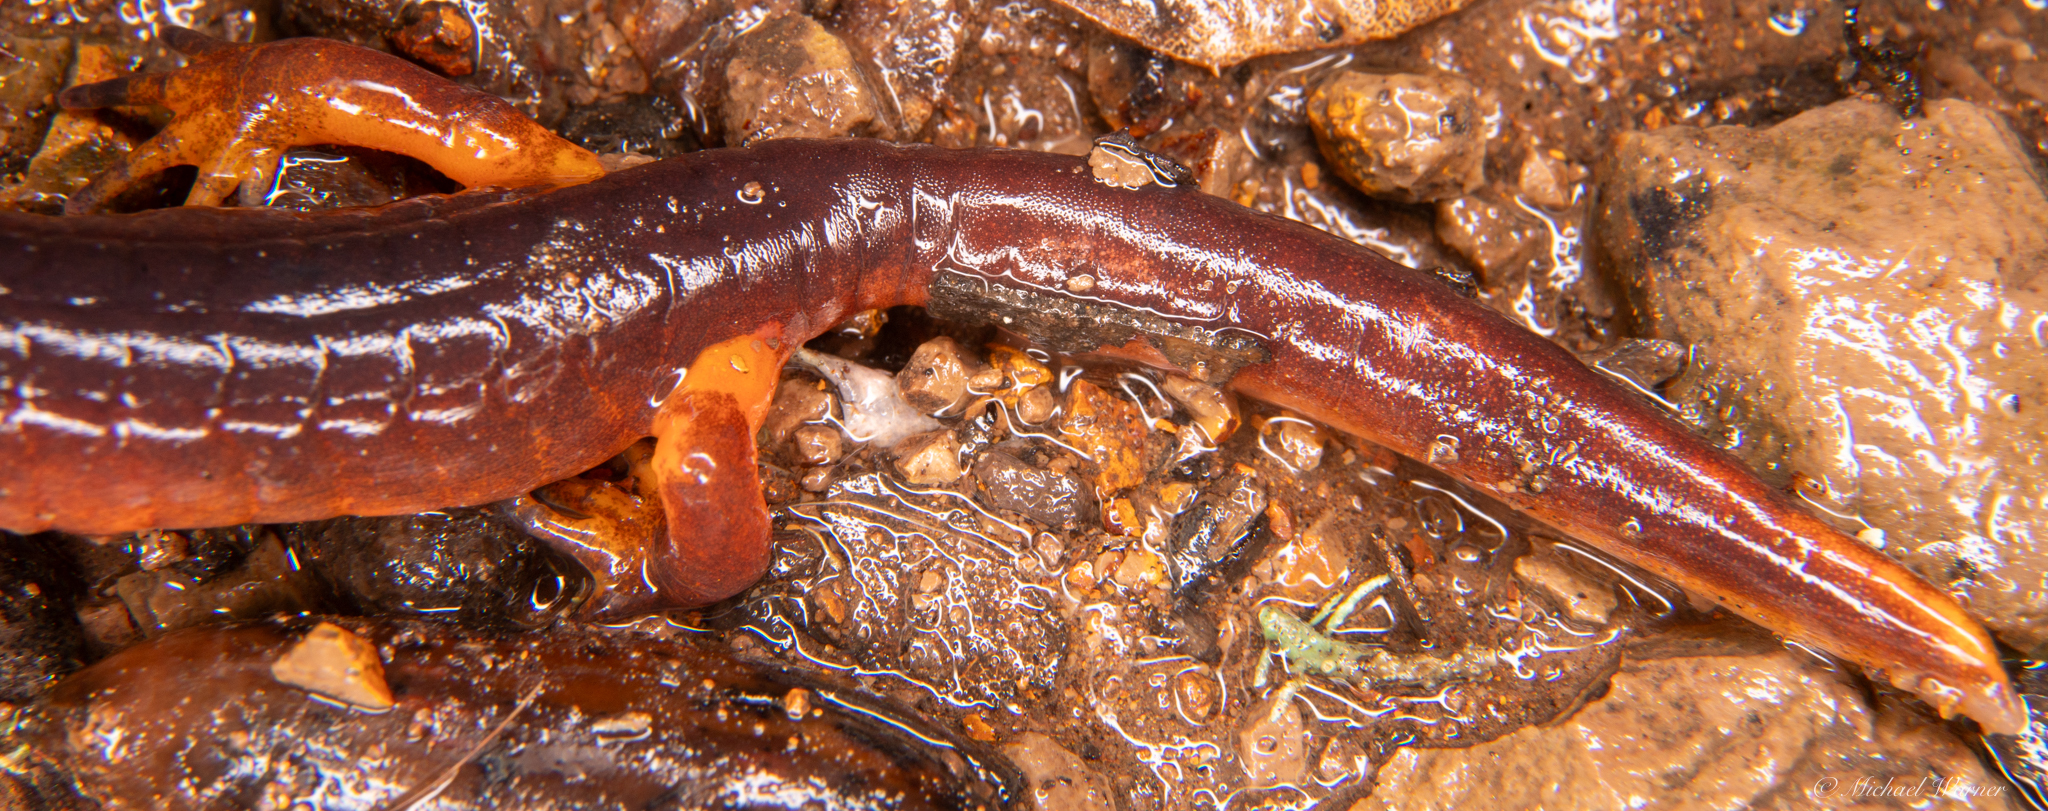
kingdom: Animalia
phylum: Chordata
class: Amphibia
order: Caudata
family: Plethodontidae
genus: Ensatina
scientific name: Ensatina eschscholtzii
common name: Ensatina
